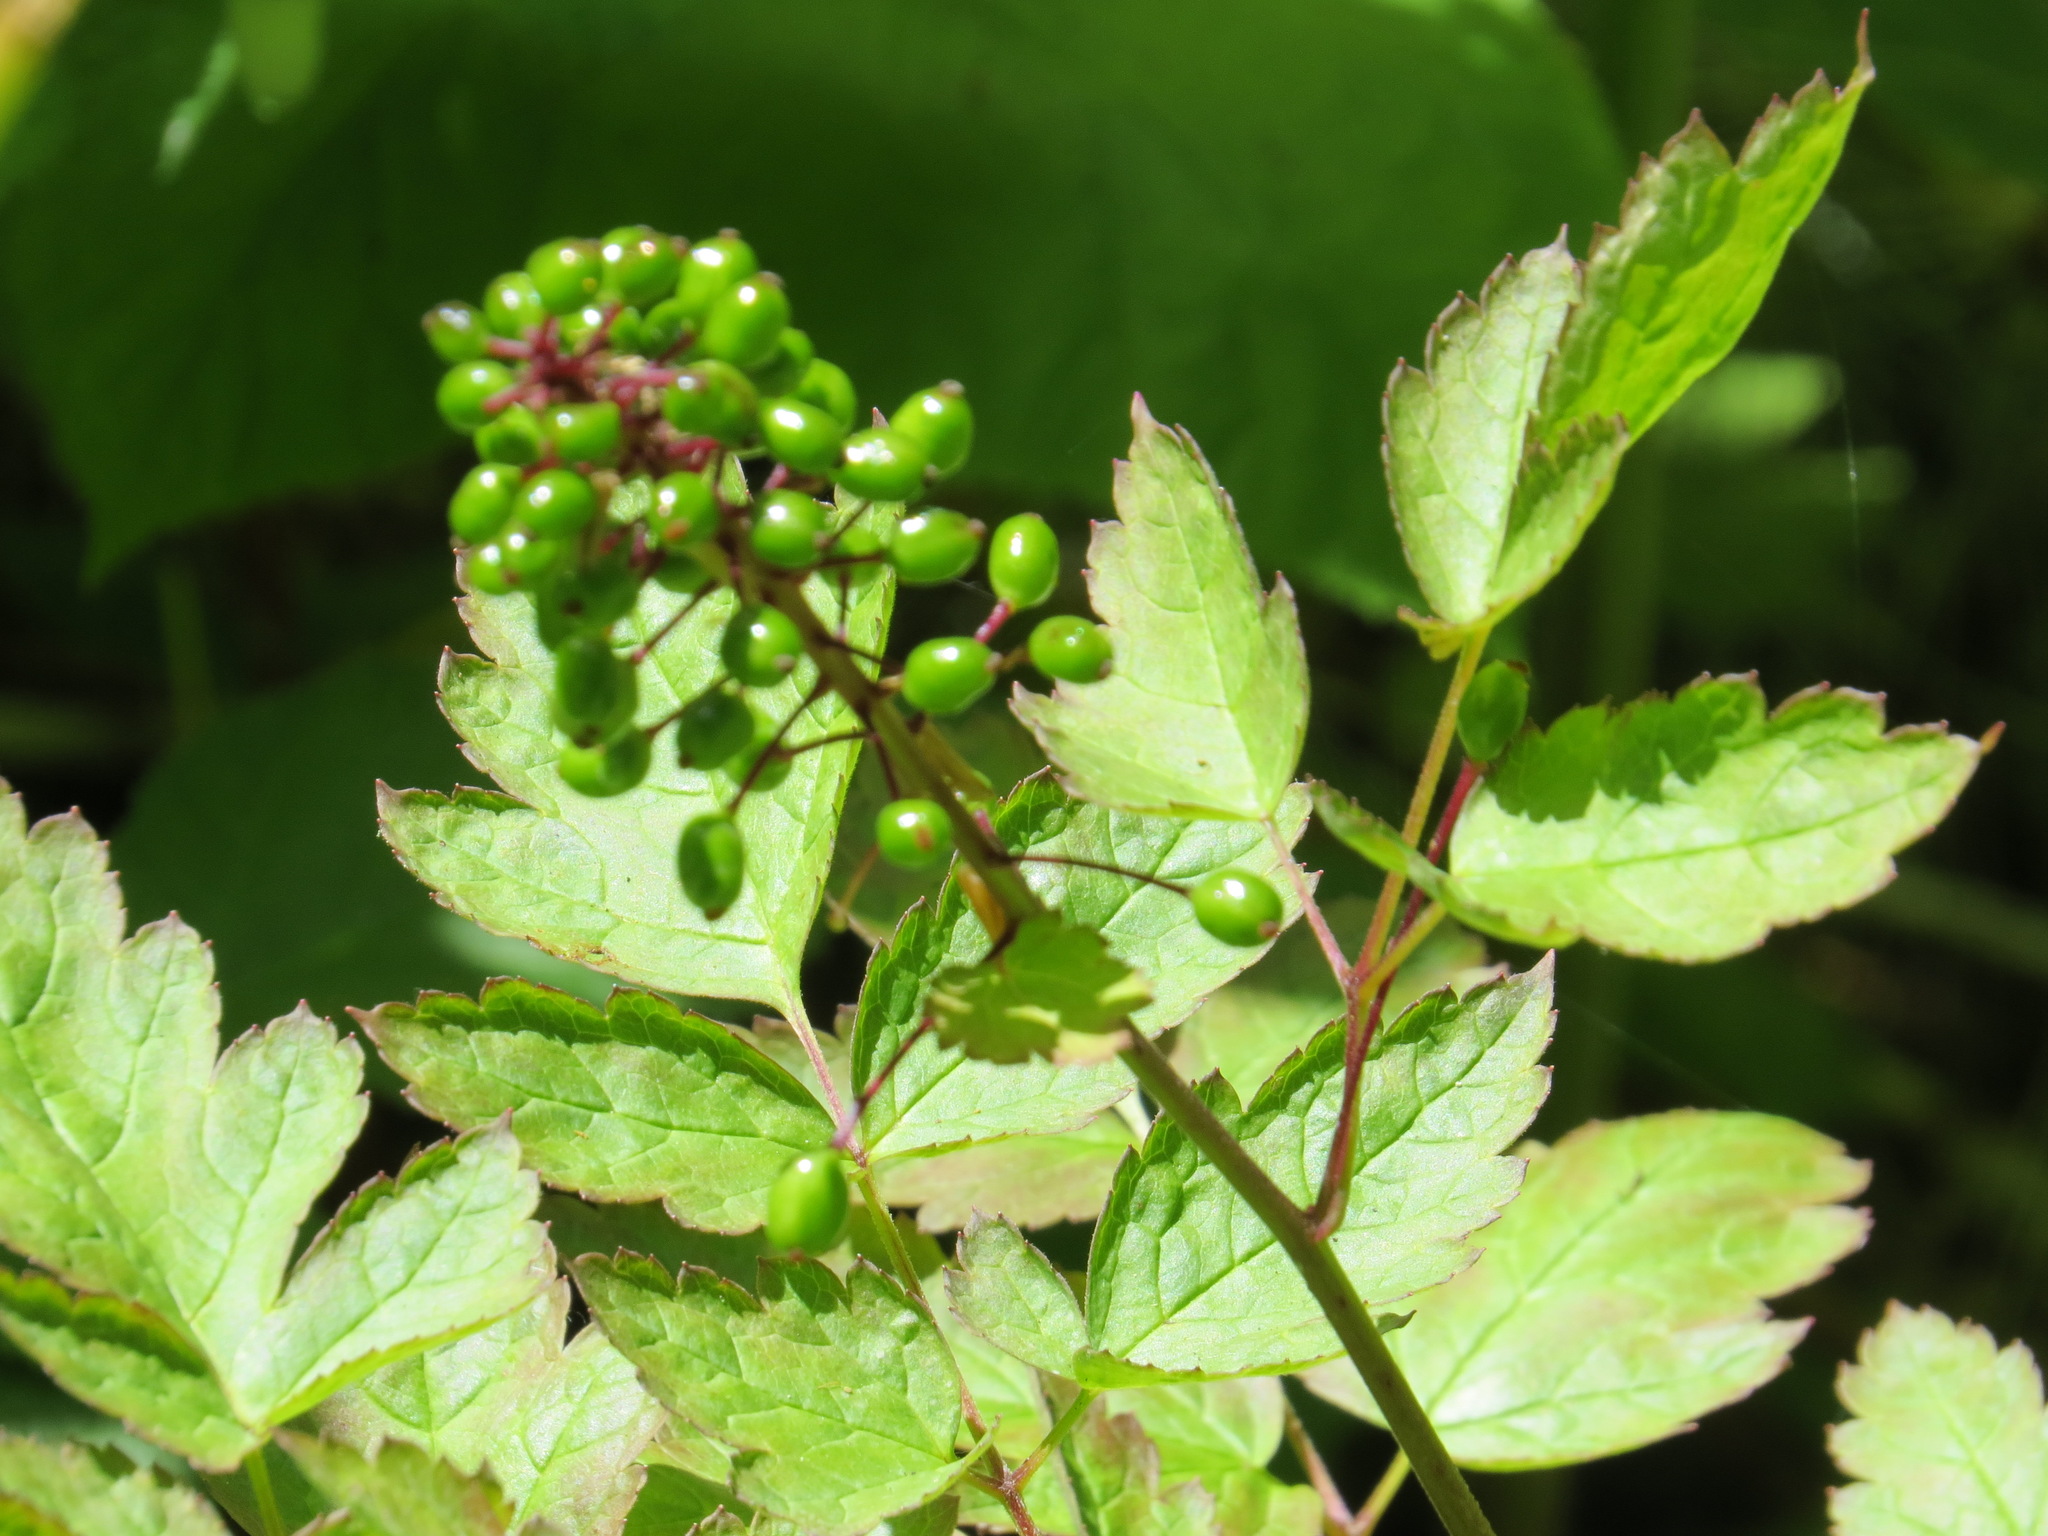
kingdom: Plantae
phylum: Tracheophyta
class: Magnoliopsida
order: Ranunculales
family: Ranunculaceae
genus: Actaea
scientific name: Actaea rubra
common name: Red baneberry
